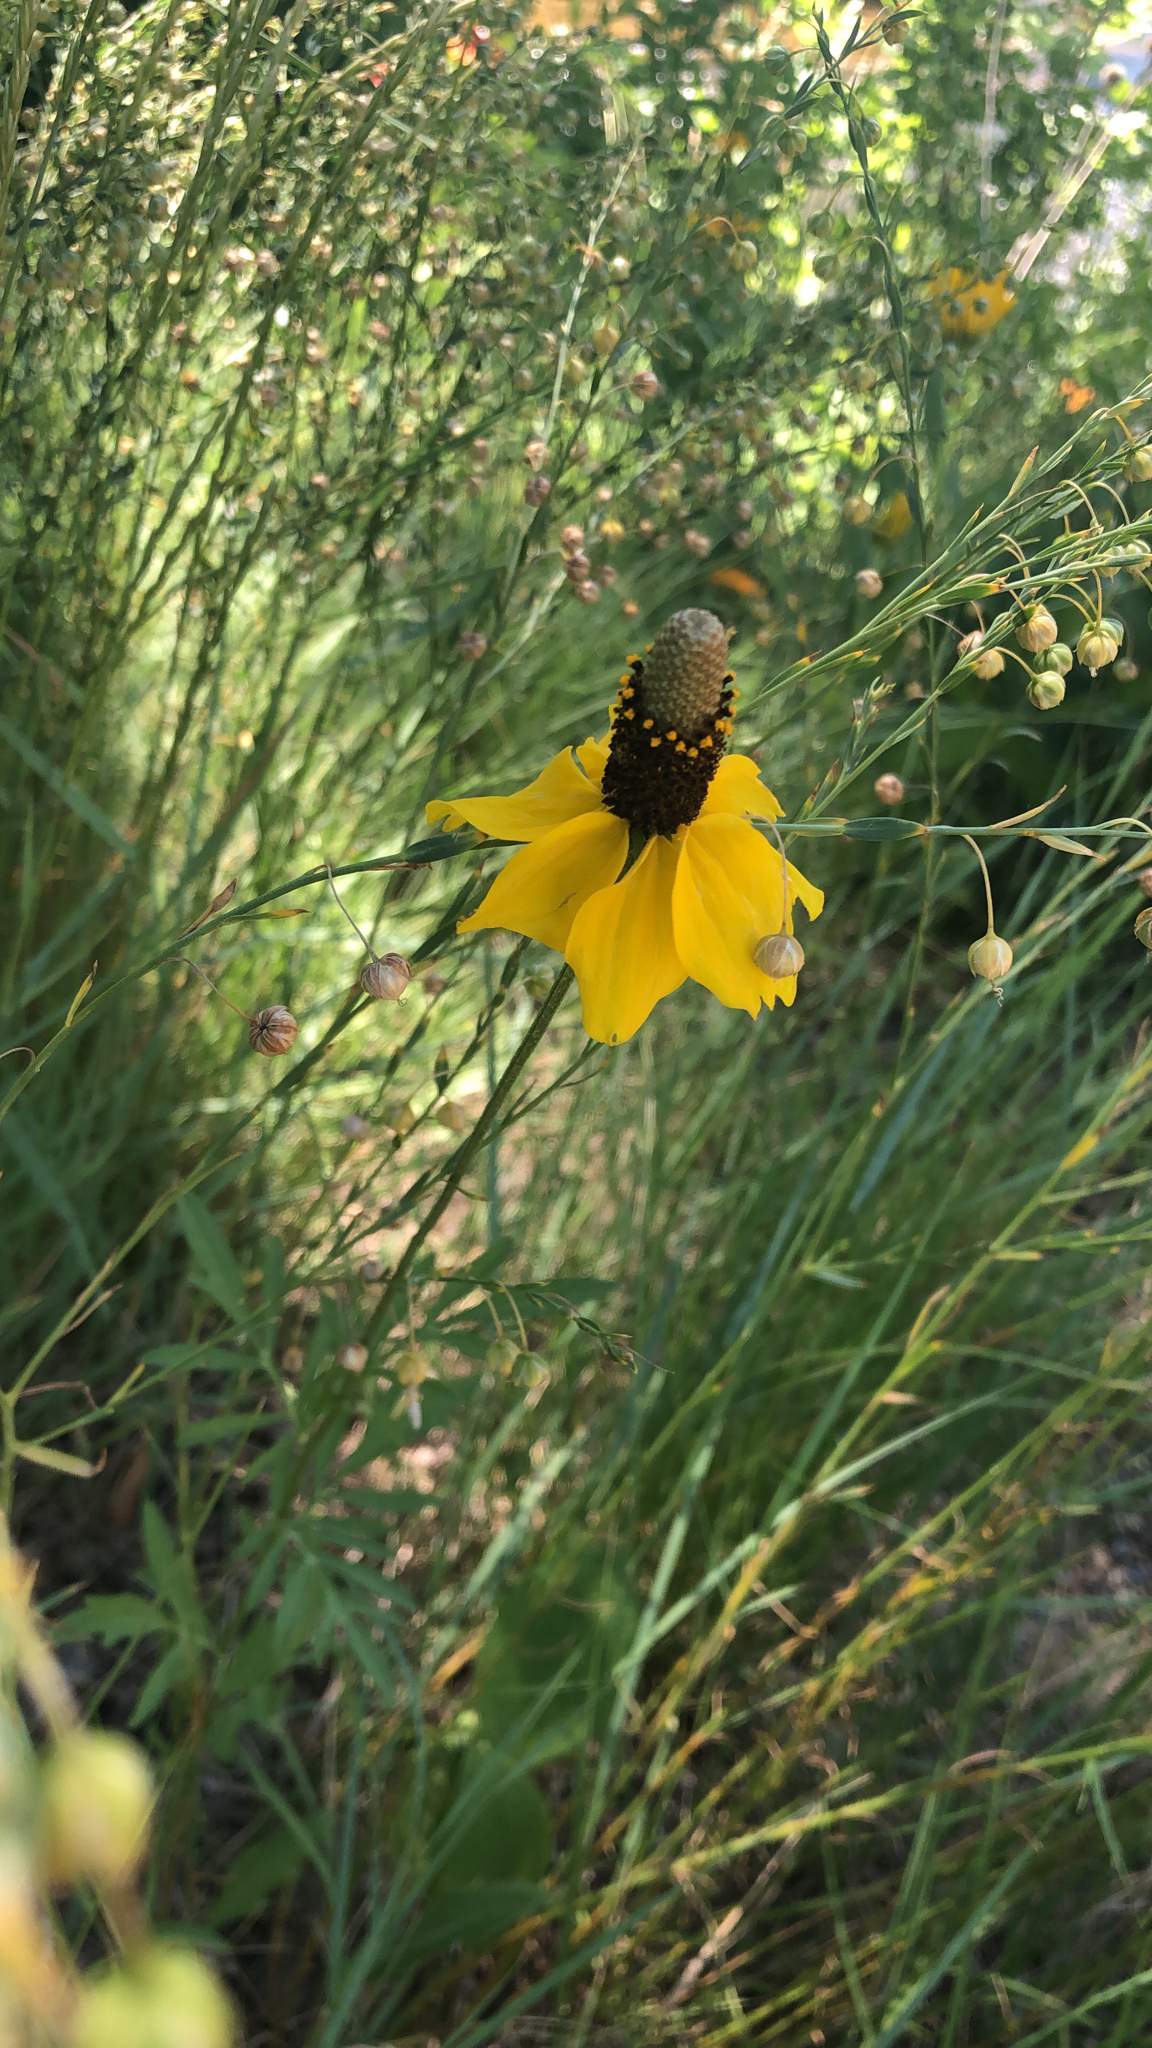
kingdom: Plantae
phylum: Tracheophyta
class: Magnoliopsida
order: Asterales
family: Asteraceae
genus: Ratibida
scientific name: Ratibida columnifera
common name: Prairie coneflower
